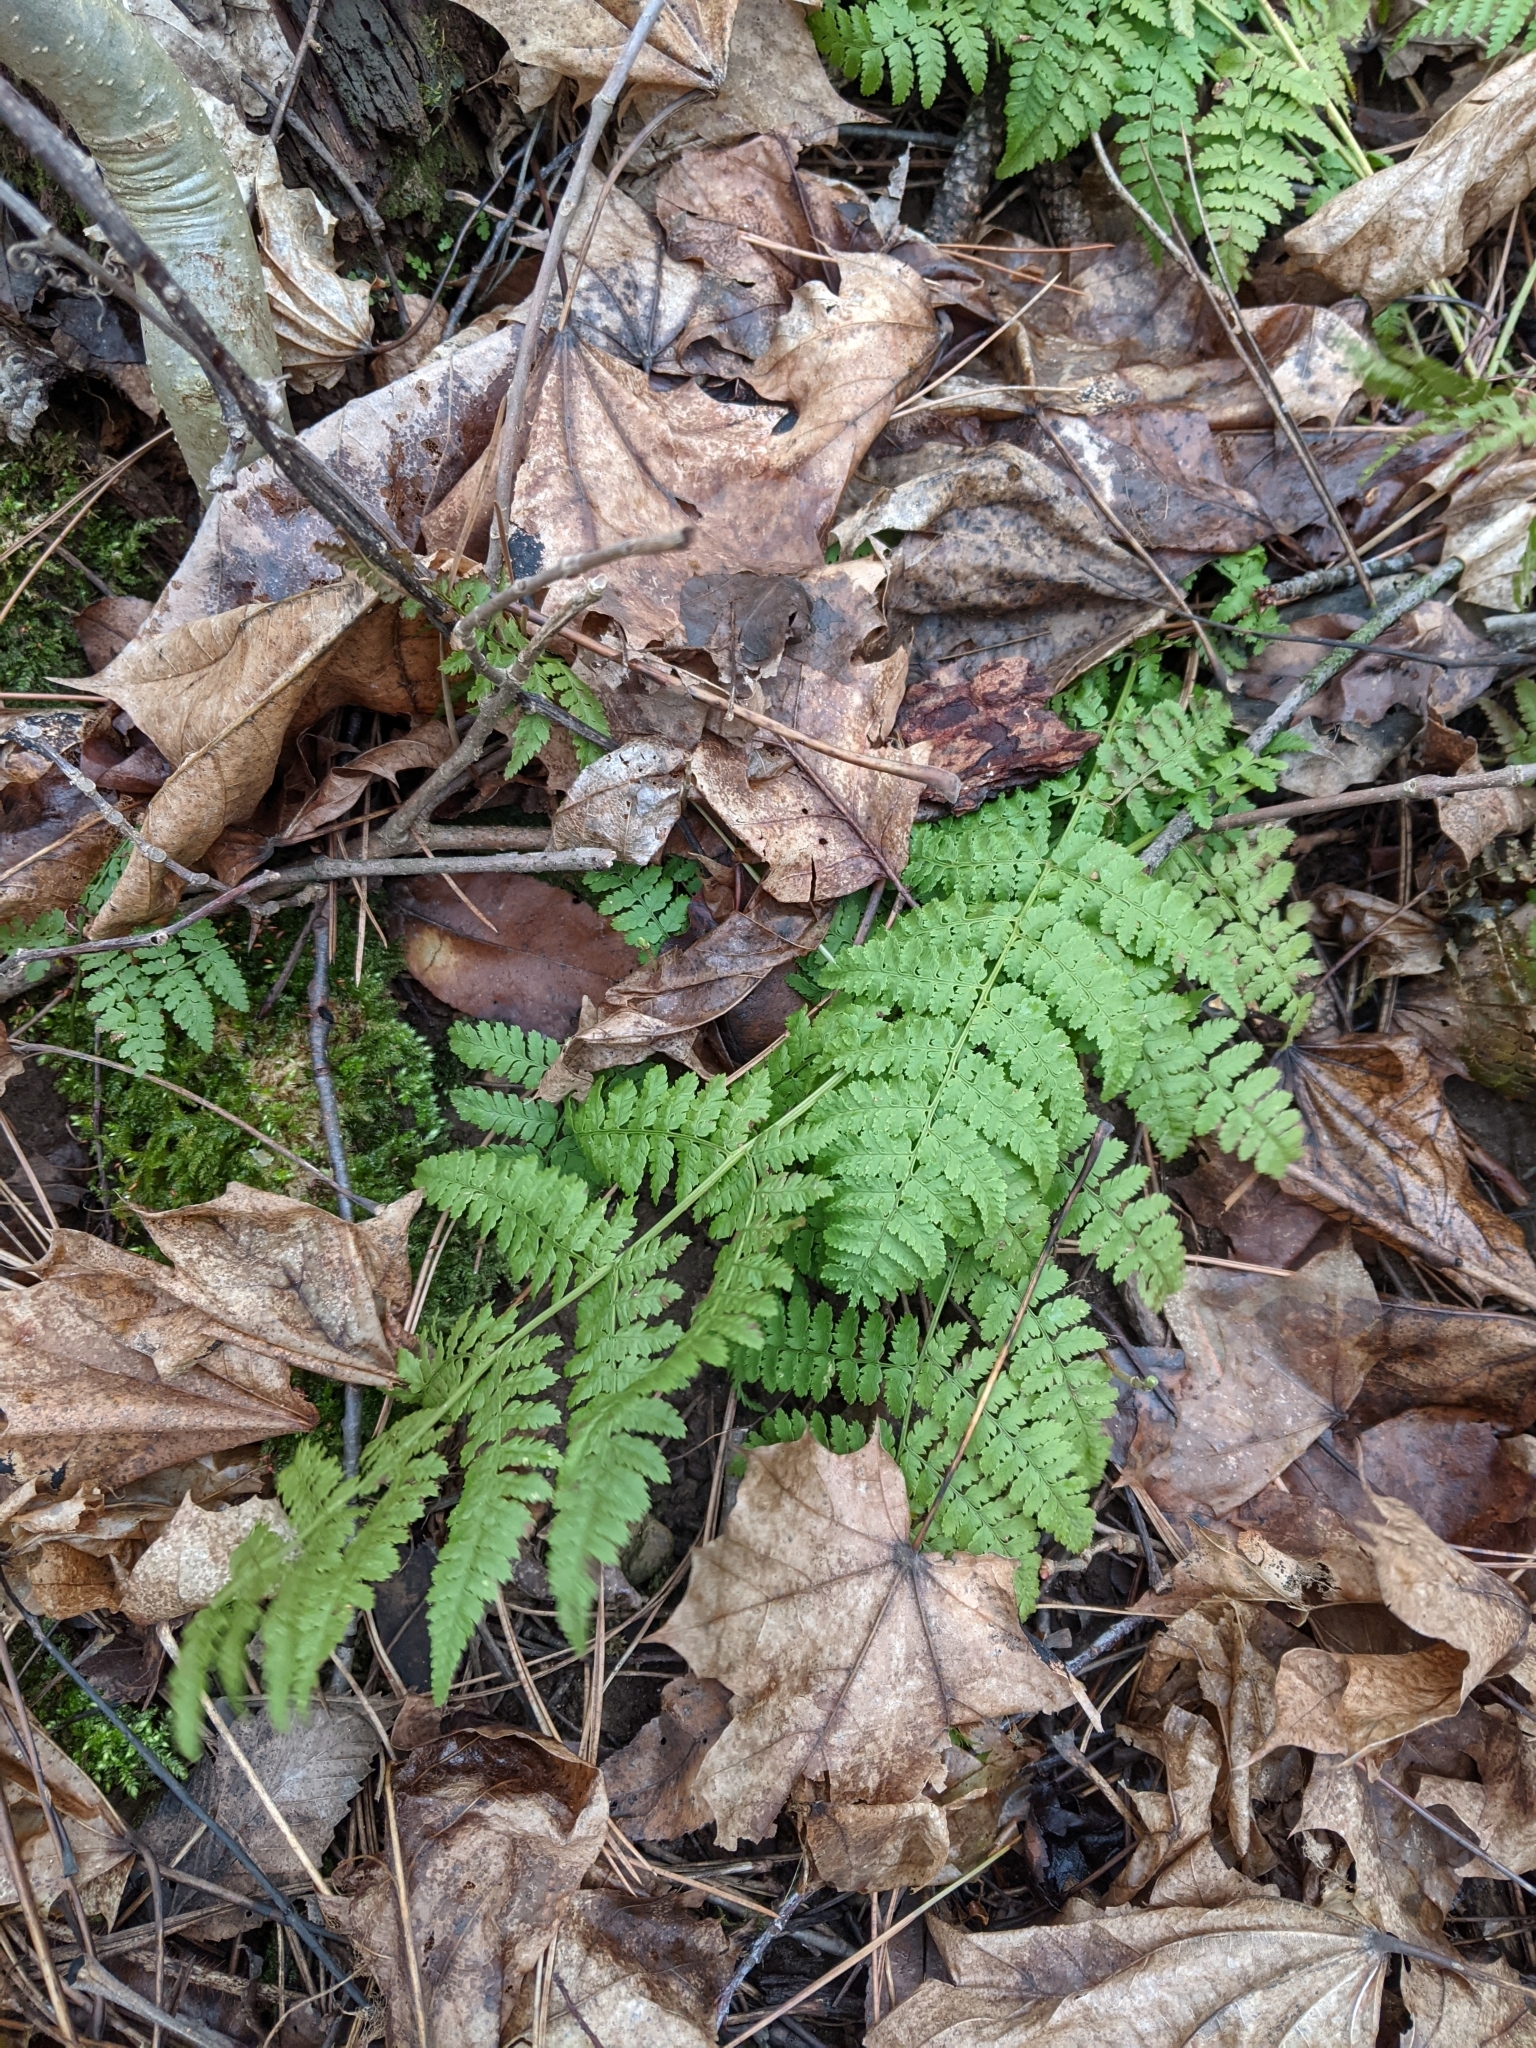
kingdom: Plantae
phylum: Tracheophyta
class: Polypodiopsida
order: Polypodiales
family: Dryopteridaceae
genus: Dryopteris
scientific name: Dryopteris intermedia
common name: Evergreen wood fern
